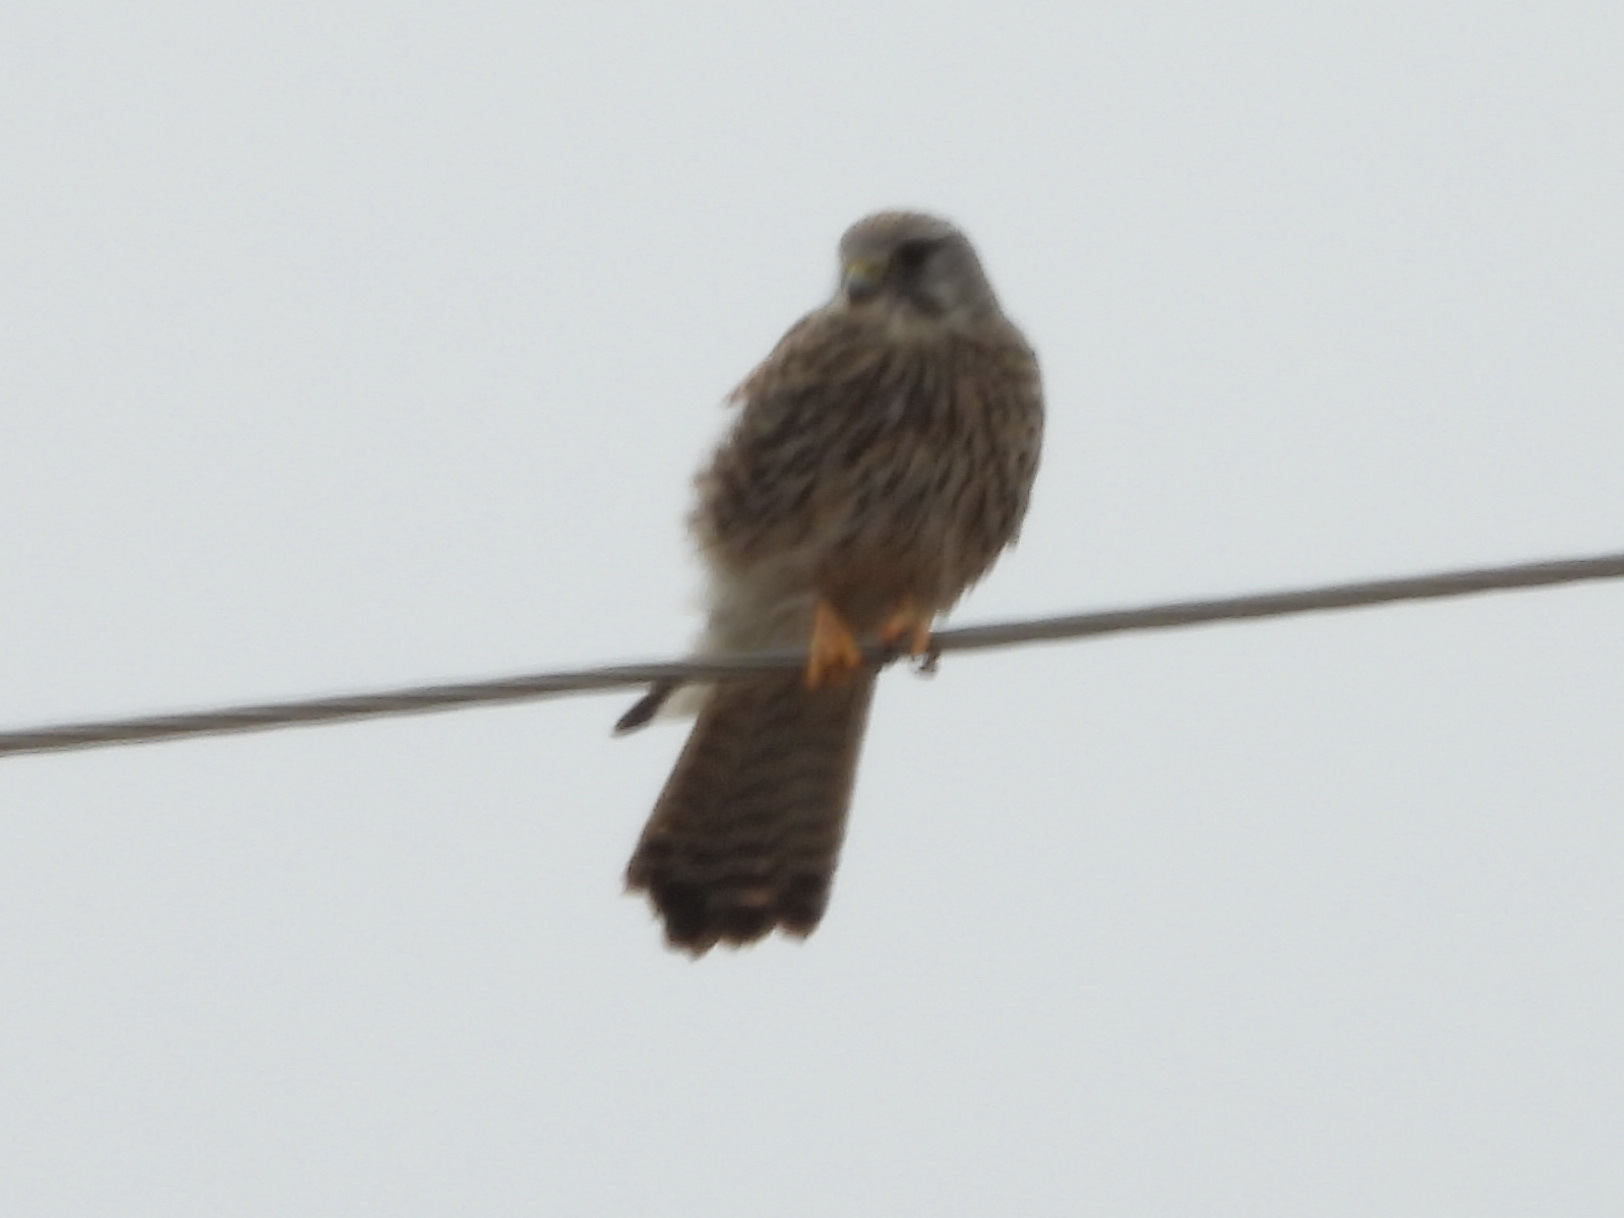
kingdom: Animalia
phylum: Chordata
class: Aves
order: Falconiformes
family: Falconidae
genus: Falco
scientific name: Falco tinnunculus
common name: Common kestrel
